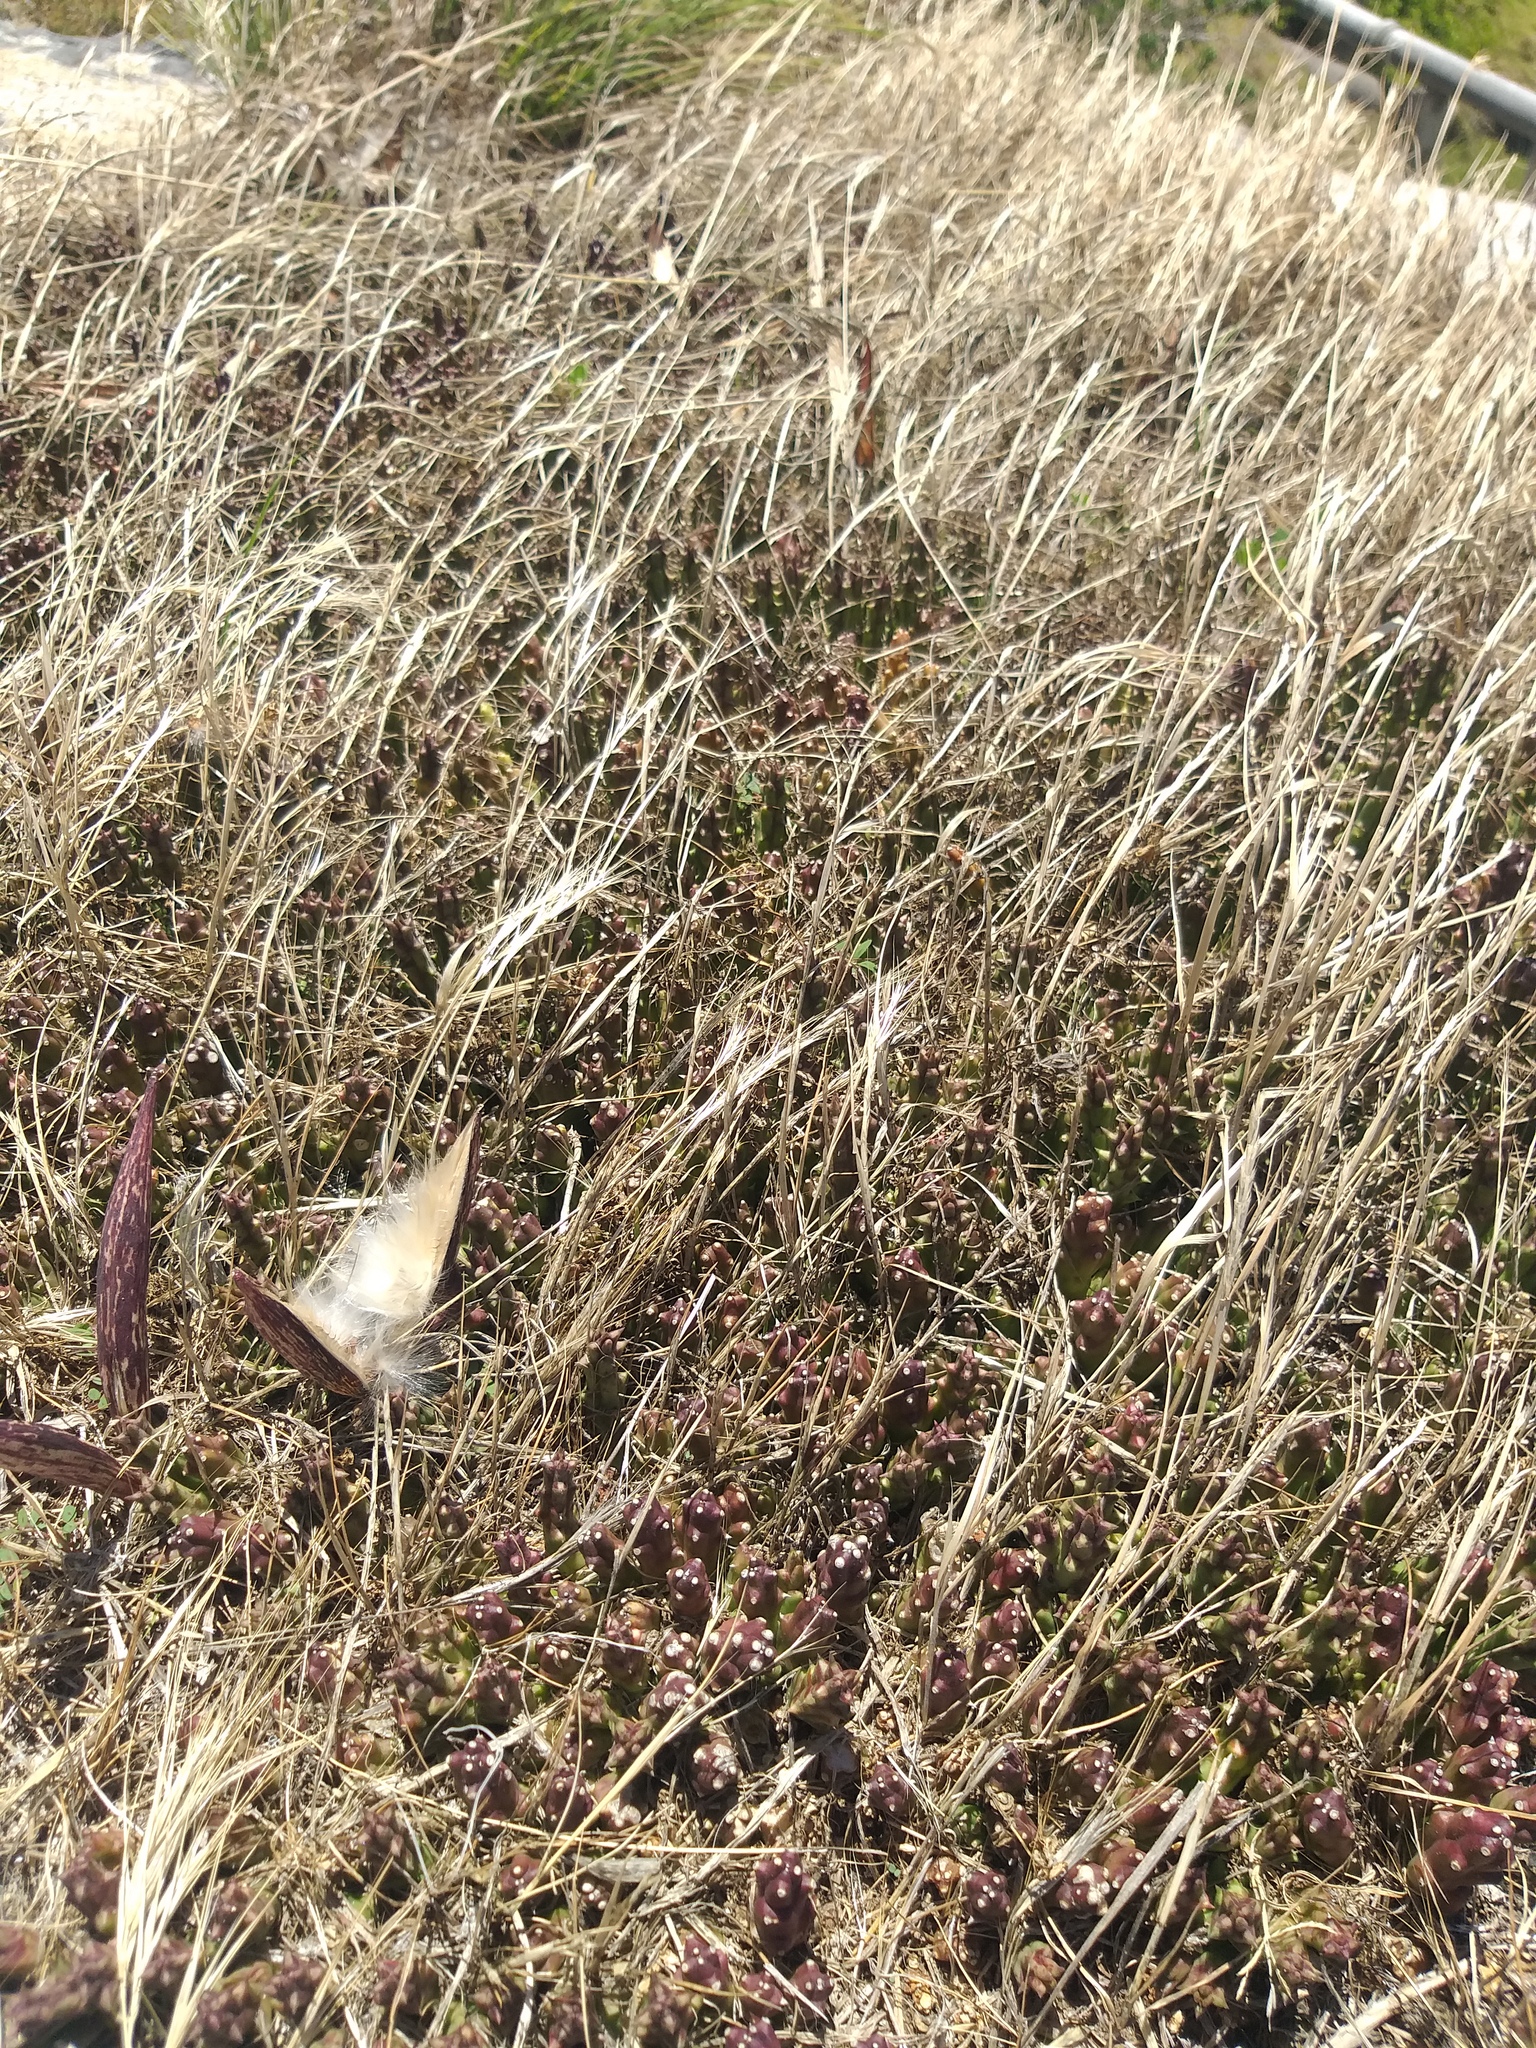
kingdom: Plantae
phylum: Tracheophyta
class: Magnoliopsida
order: Gentianales
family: Apocynaceae
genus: Ceropegia
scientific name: Ceropegia mixta
